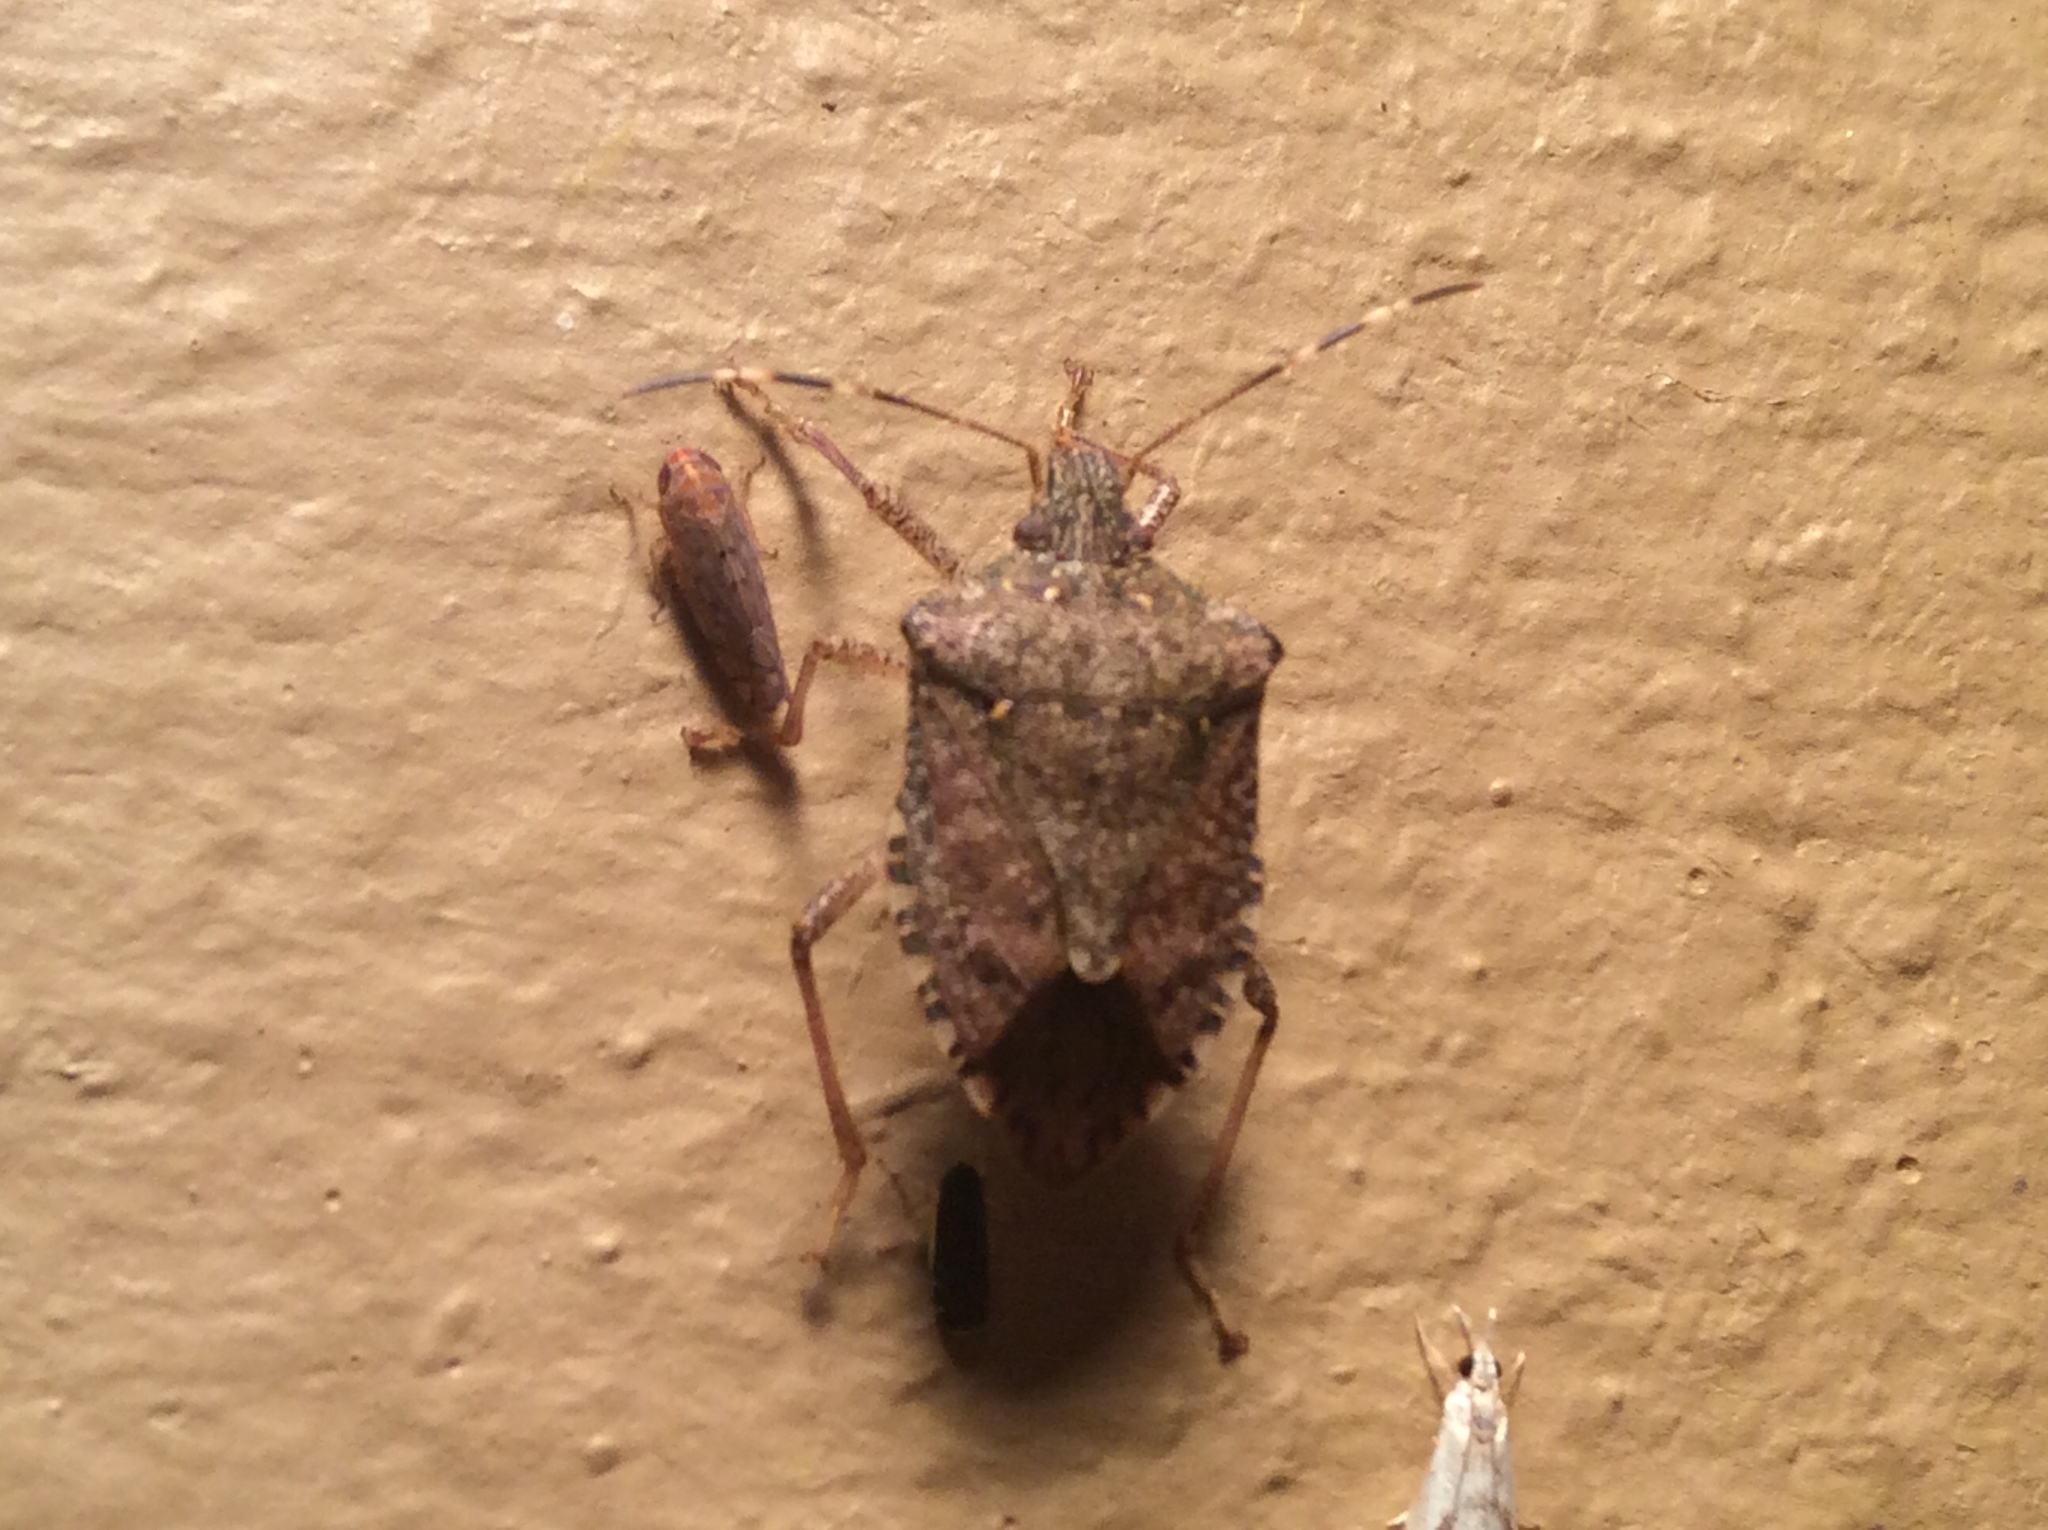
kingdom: Animalia
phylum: Arthropoda
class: Insecta
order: Hemiptera
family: Pentatomidae
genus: Halyomorpha
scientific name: Halyomorpha halys
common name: Brown marmorated stink bug
